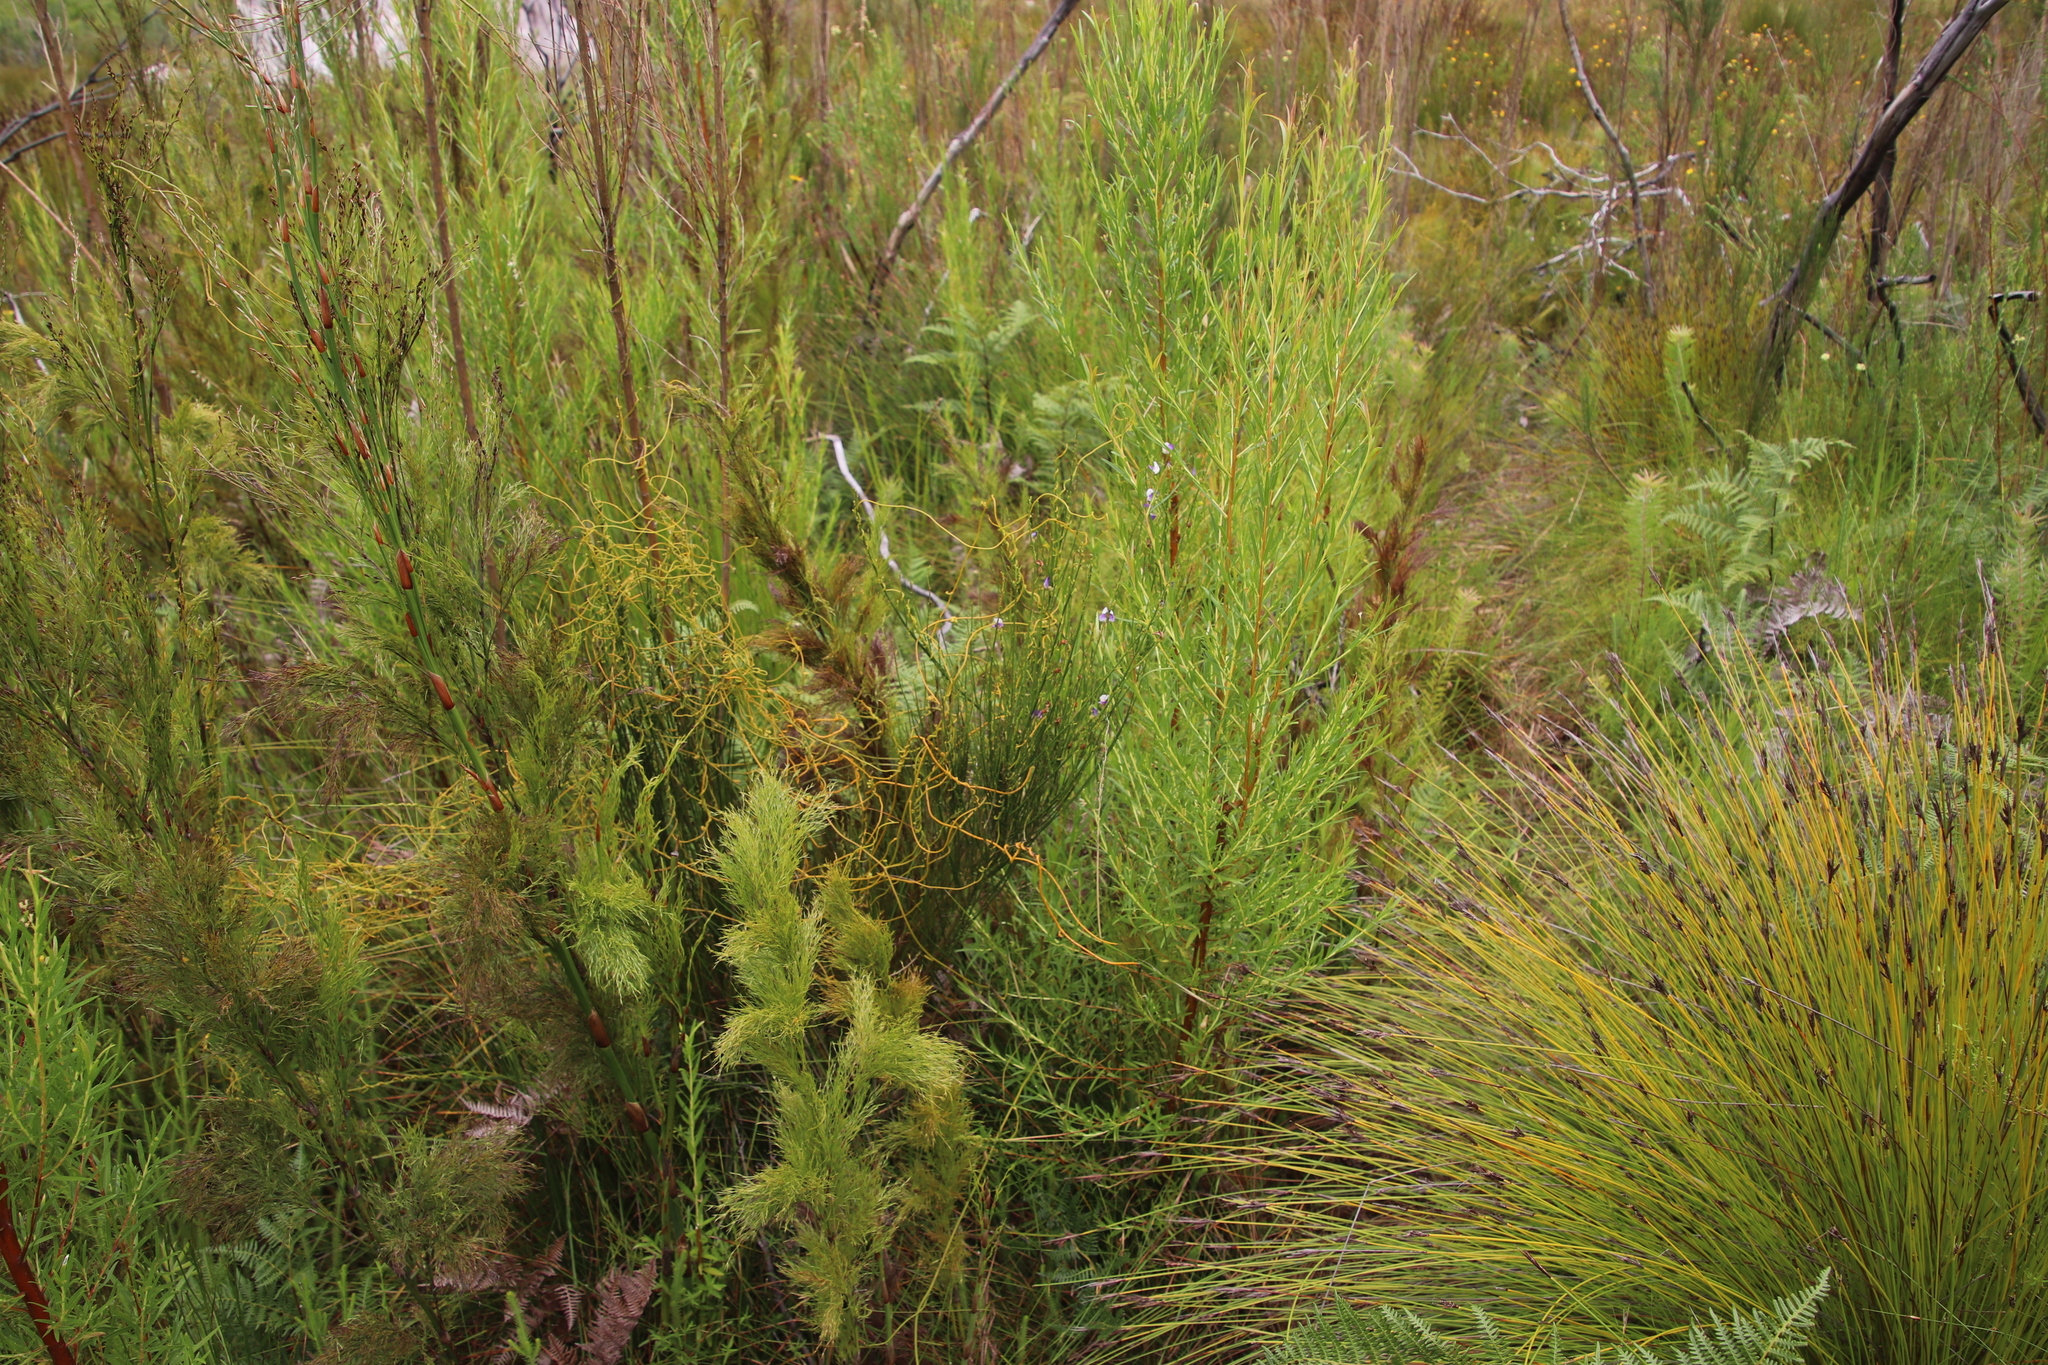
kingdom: Plantae
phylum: Tracheophyta
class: Magnoliopsida
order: Laurales
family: Lauraceae
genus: Cassytha
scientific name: Cassytha ciliolata
